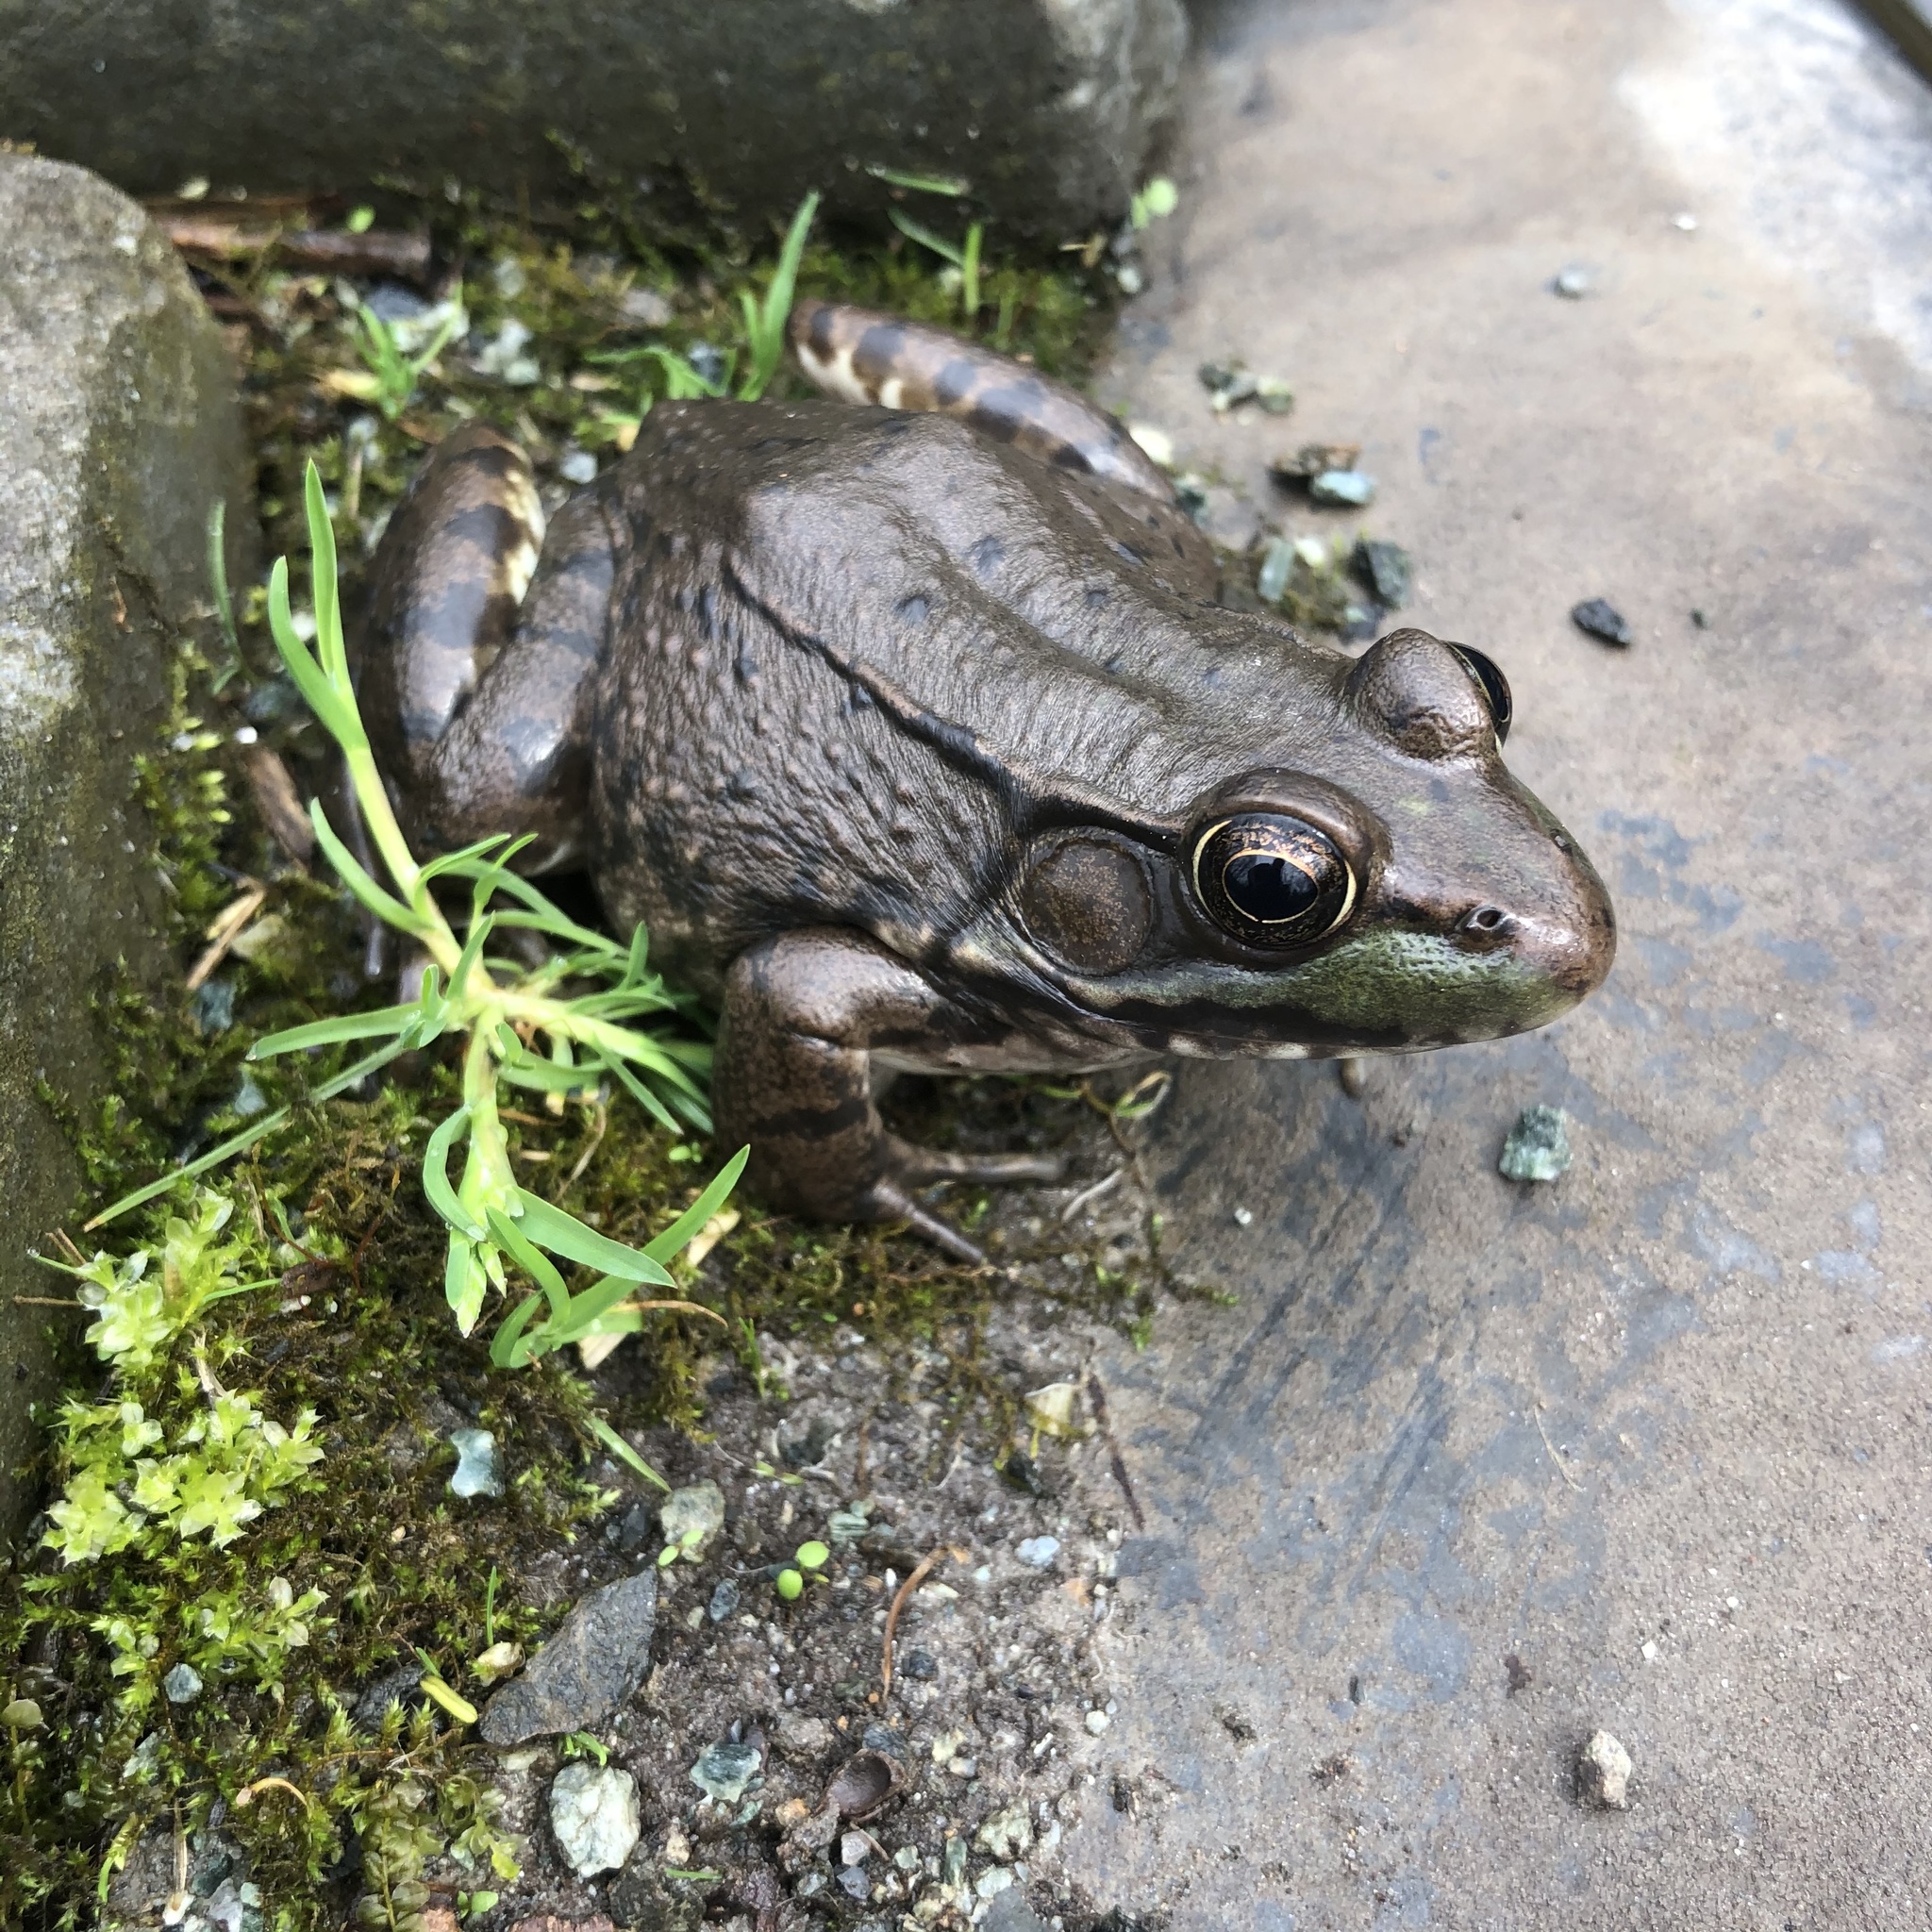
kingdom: Animalia
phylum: Chordata
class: Amphibia
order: Anura
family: Ranidae
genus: Lithobates
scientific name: Lithobates clamitans
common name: Green frog
